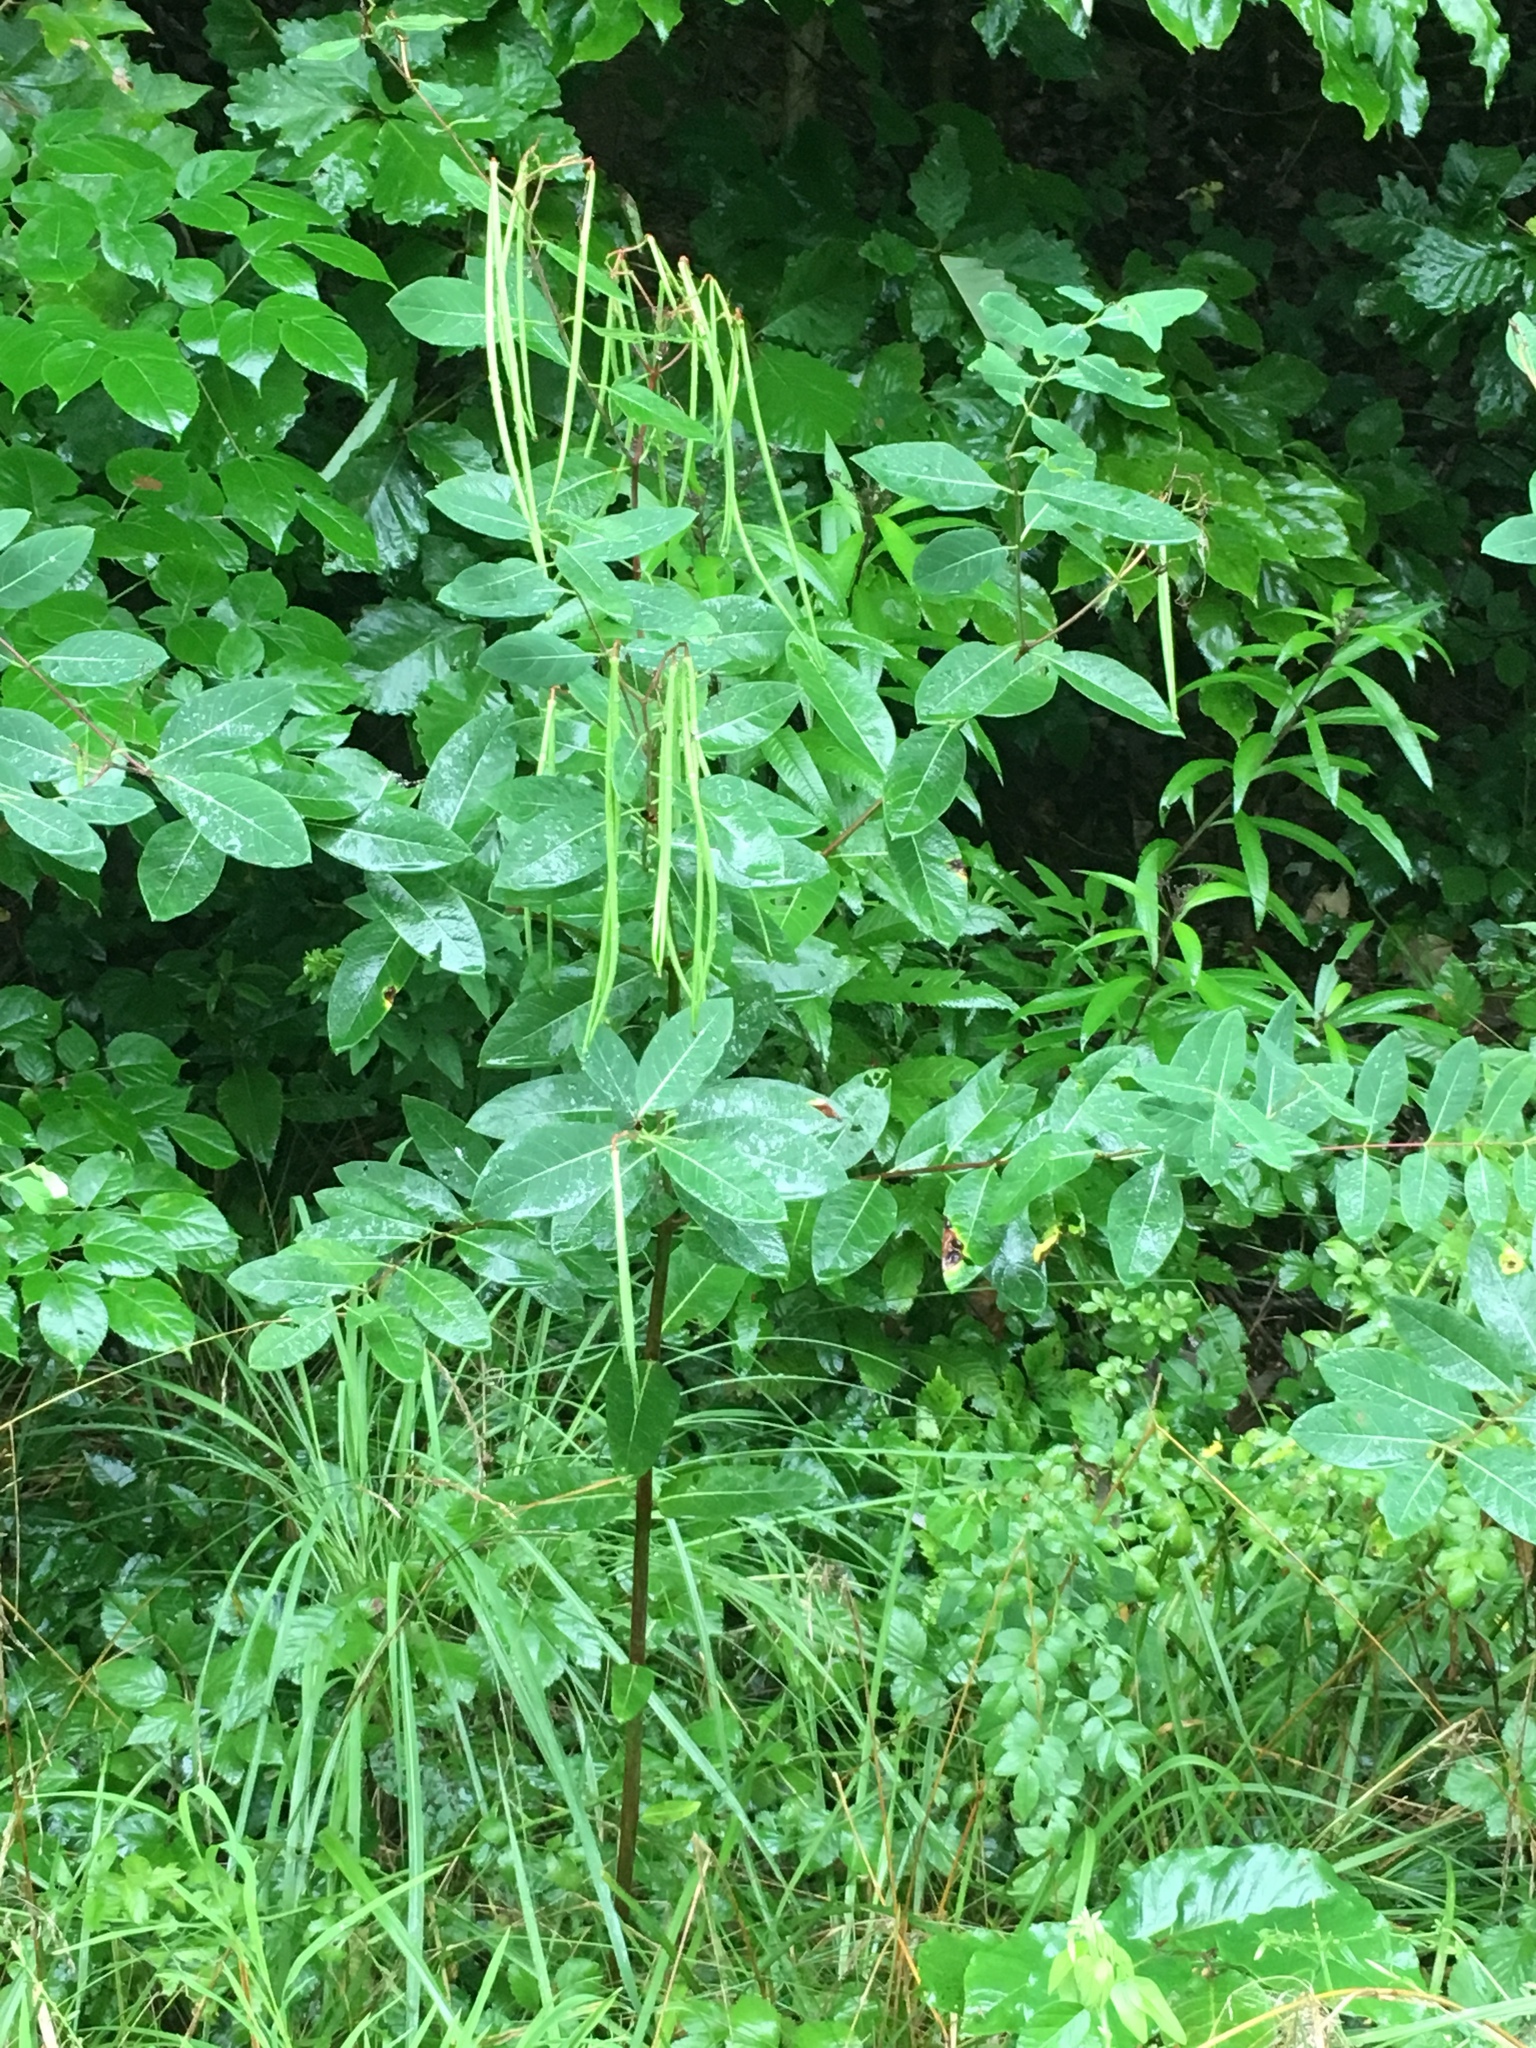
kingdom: Plantae
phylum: Tracheophyta
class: Magnoliopsida
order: Gentianales
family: Apocynaceae
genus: Apocynum
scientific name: Apocynum cannabinum
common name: Hemp dogbane
